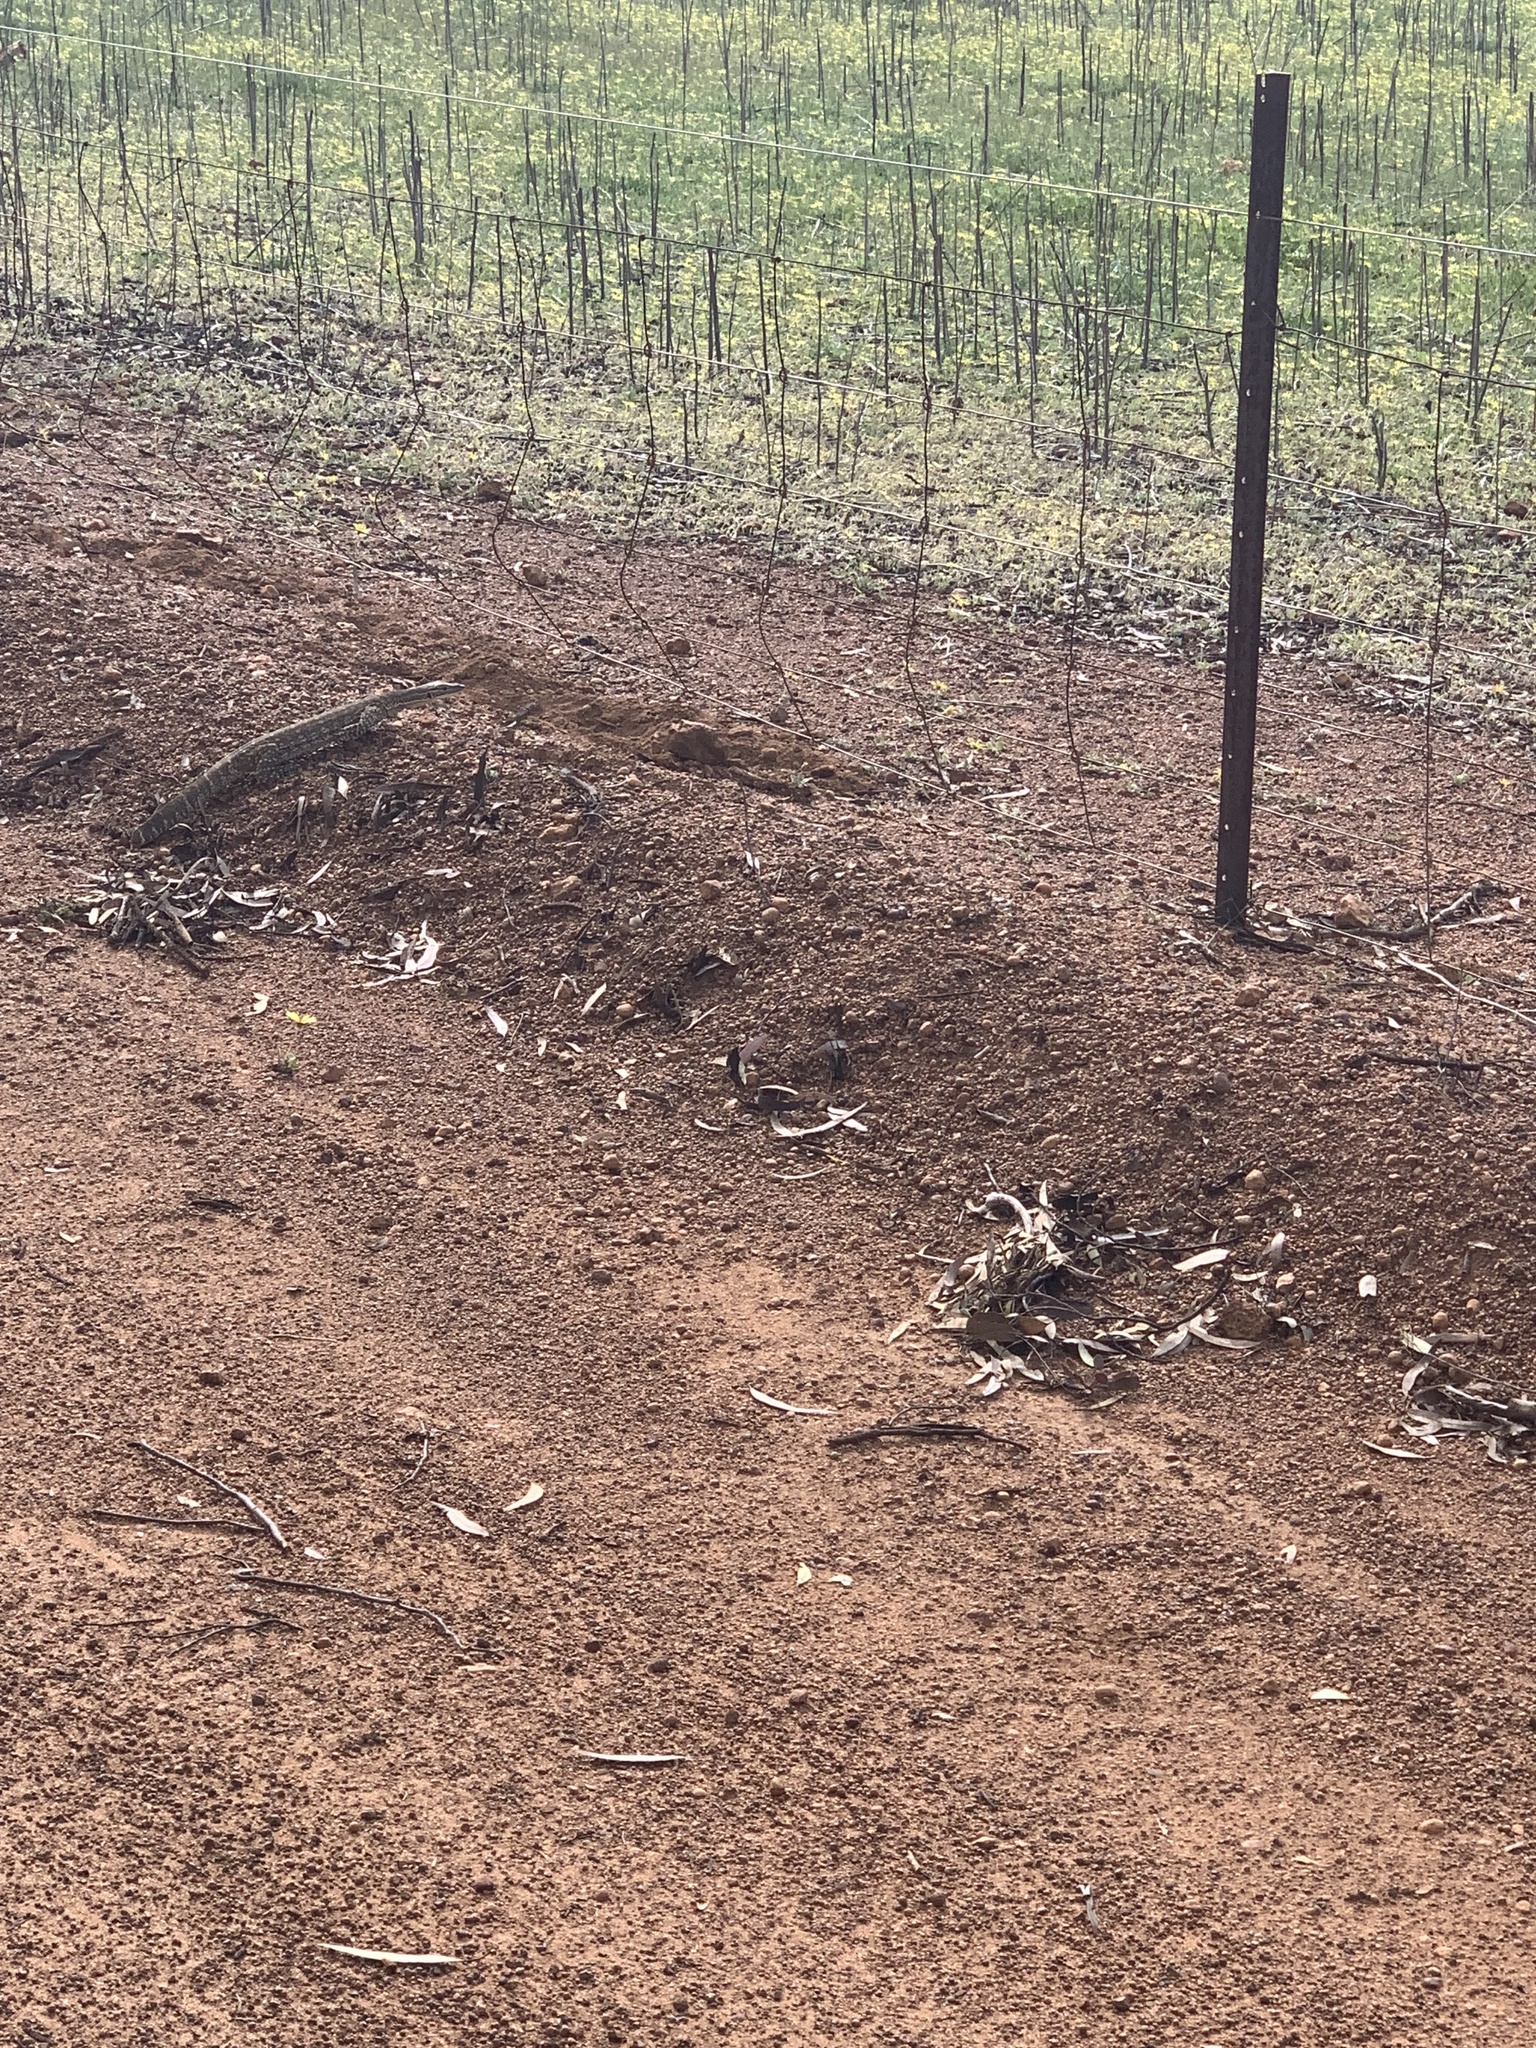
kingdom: Animalia
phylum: Chordata
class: Squamata
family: Varanidae
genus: Varanus
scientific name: Varanus gouldii
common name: Gould's goanna
